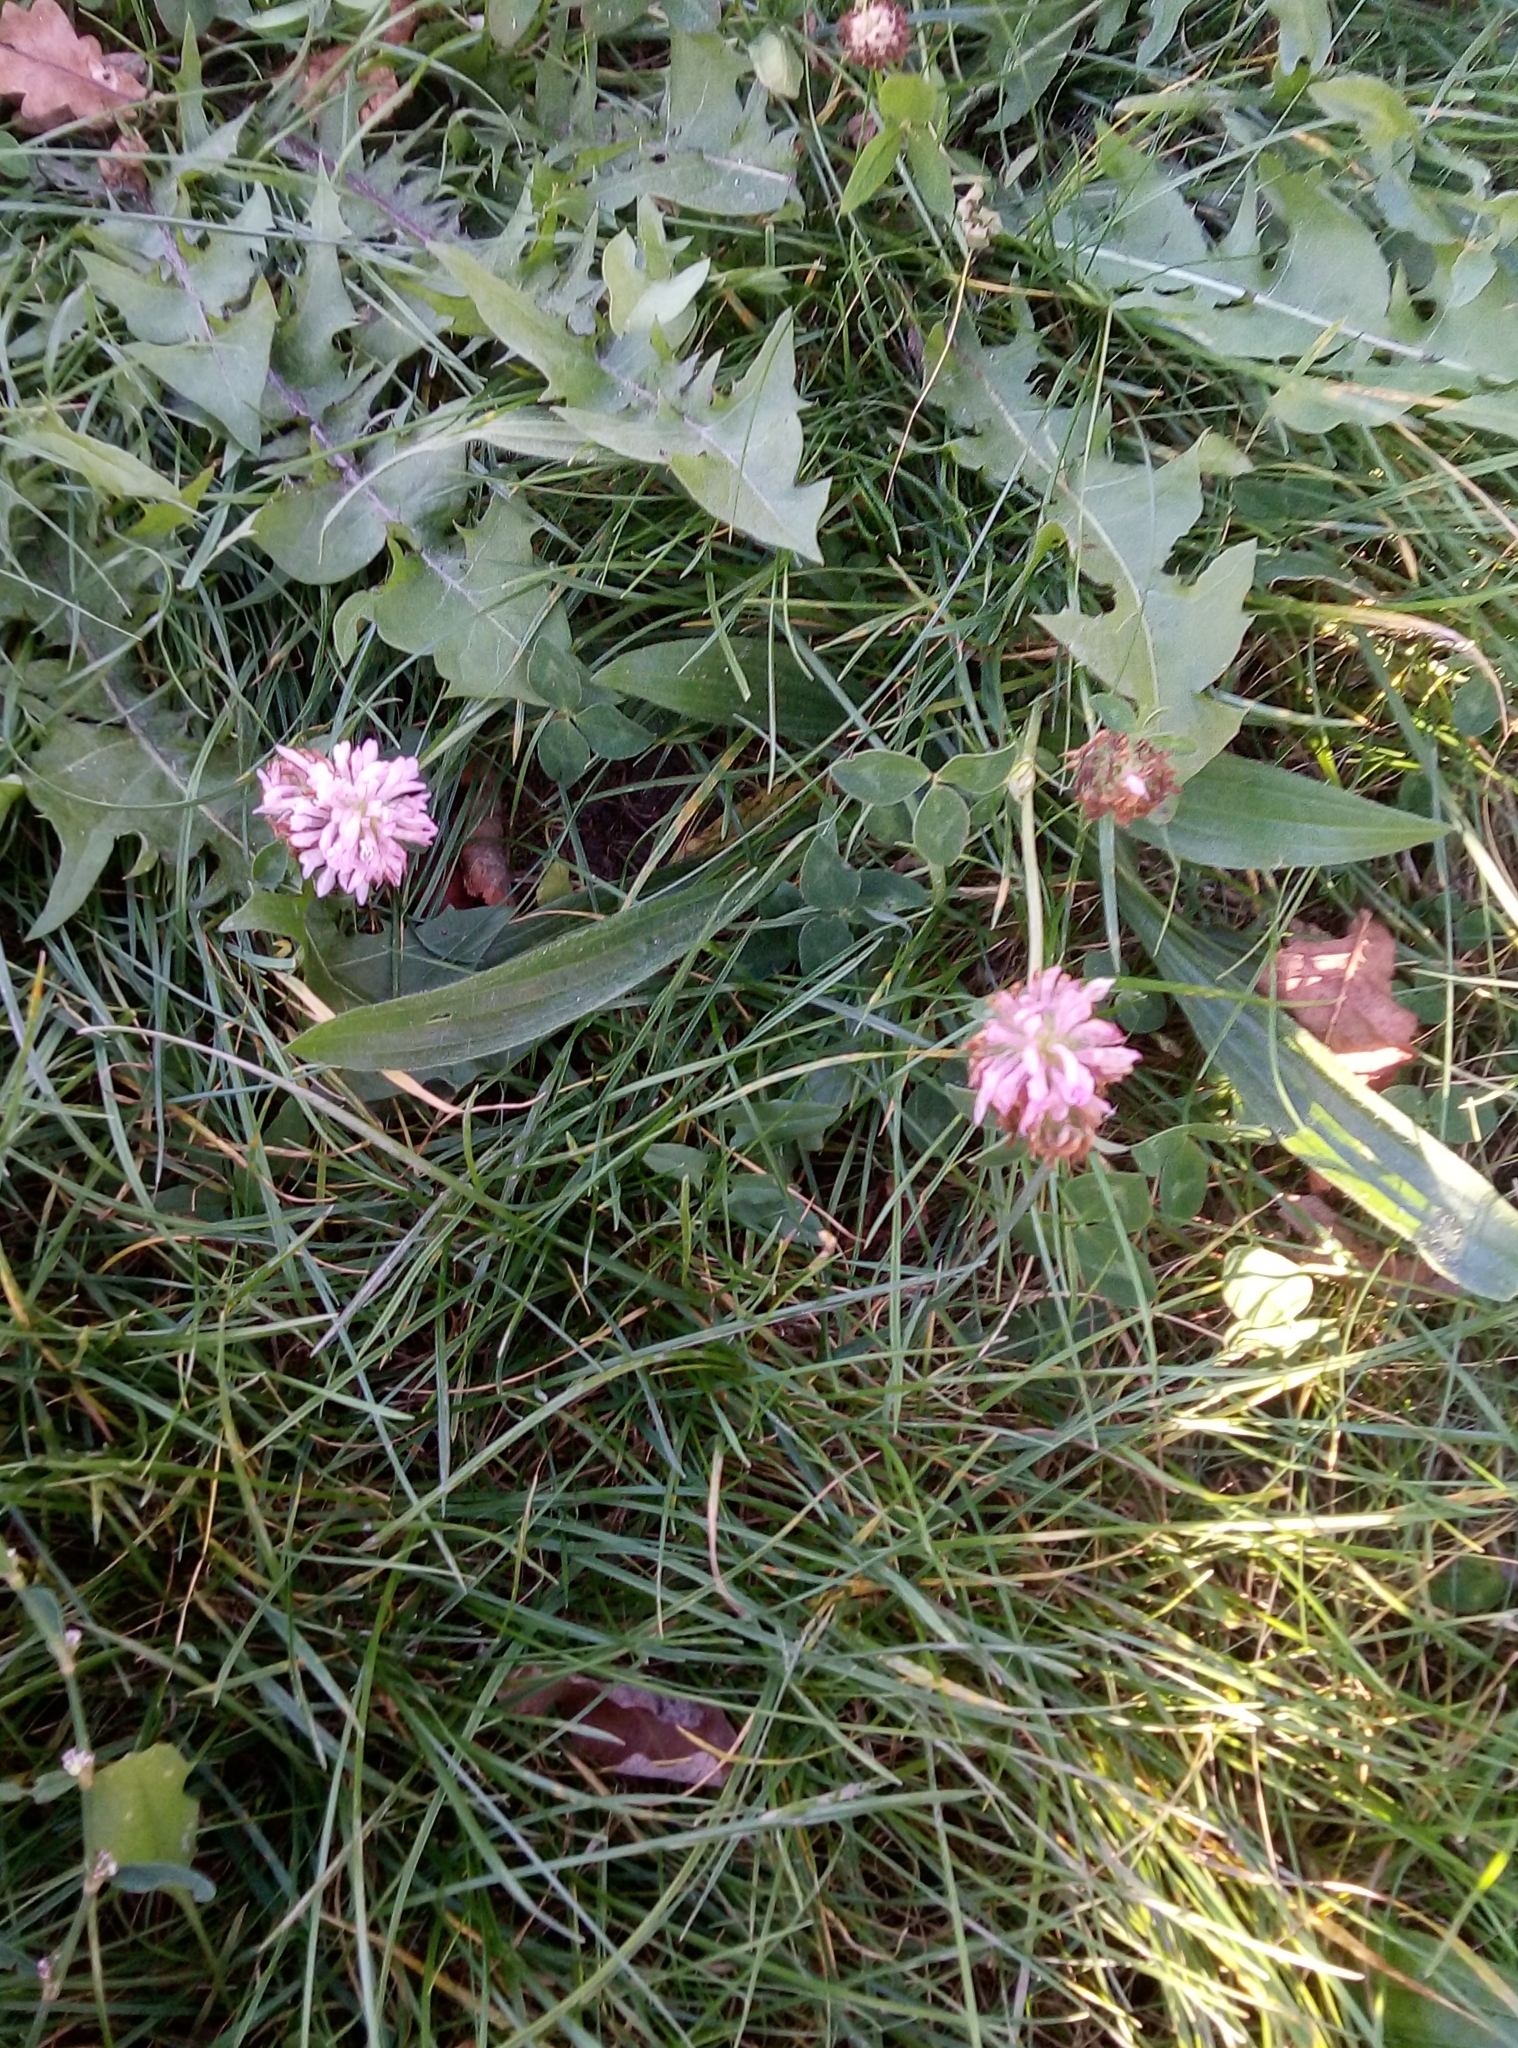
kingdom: Plantae
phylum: Tracheophyta
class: Magnoliopsida
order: Fabales
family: Fabaceae
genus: Trifolium
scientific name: Trifolium pratense
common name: Red clover
